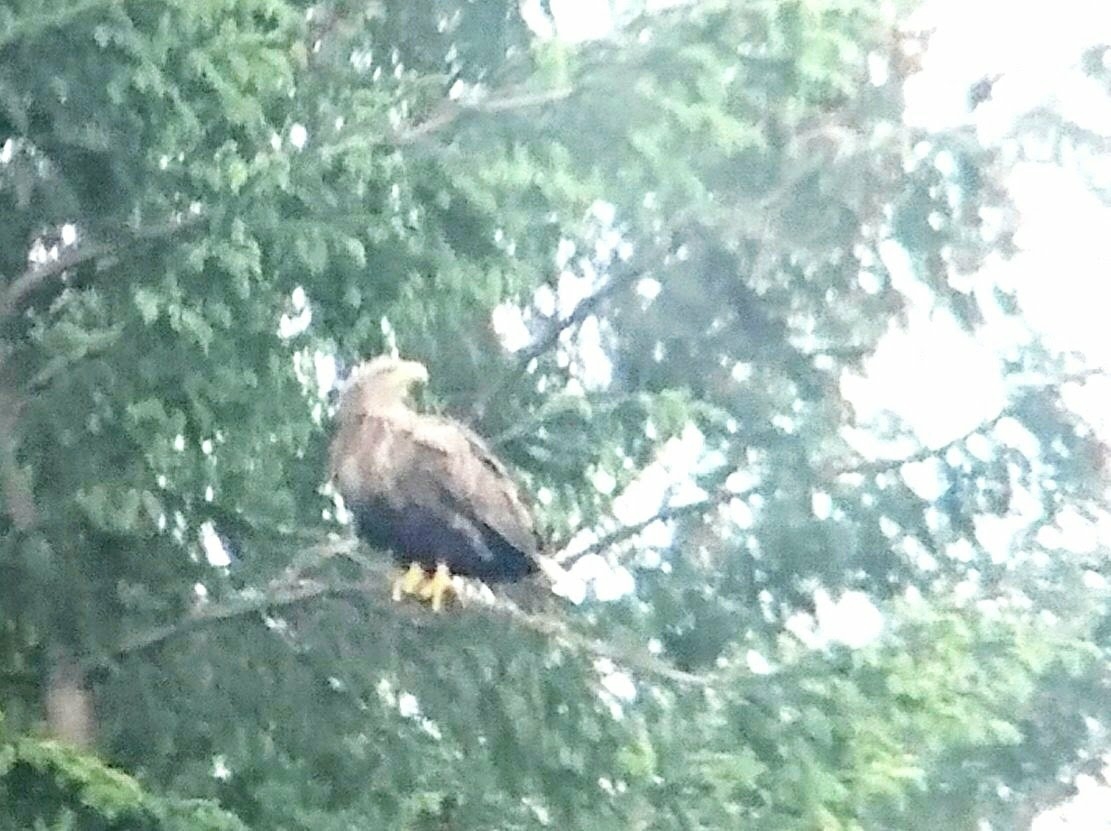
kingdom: Animalia
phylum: Chordata
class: Aves
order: Accipitriformes
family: Accipitridae
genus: Haliaeetus
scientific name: Haliaeetus albicilla
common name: White-tailed eagle
